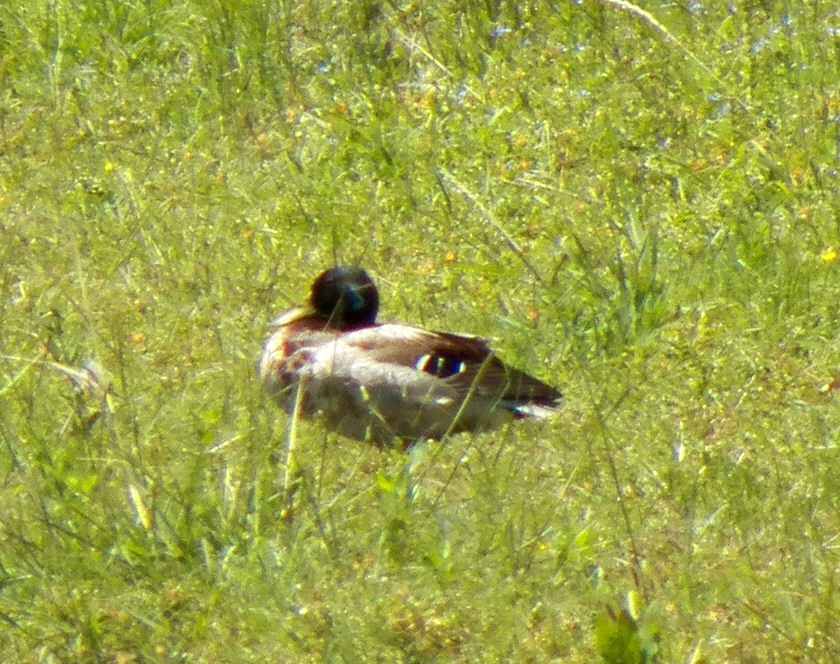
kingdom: Animalia
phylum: Chordata
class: Aves
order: Anseriformes
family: Anatidae
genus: Anas
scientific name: Anas platyrhynchos
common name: Mallard
